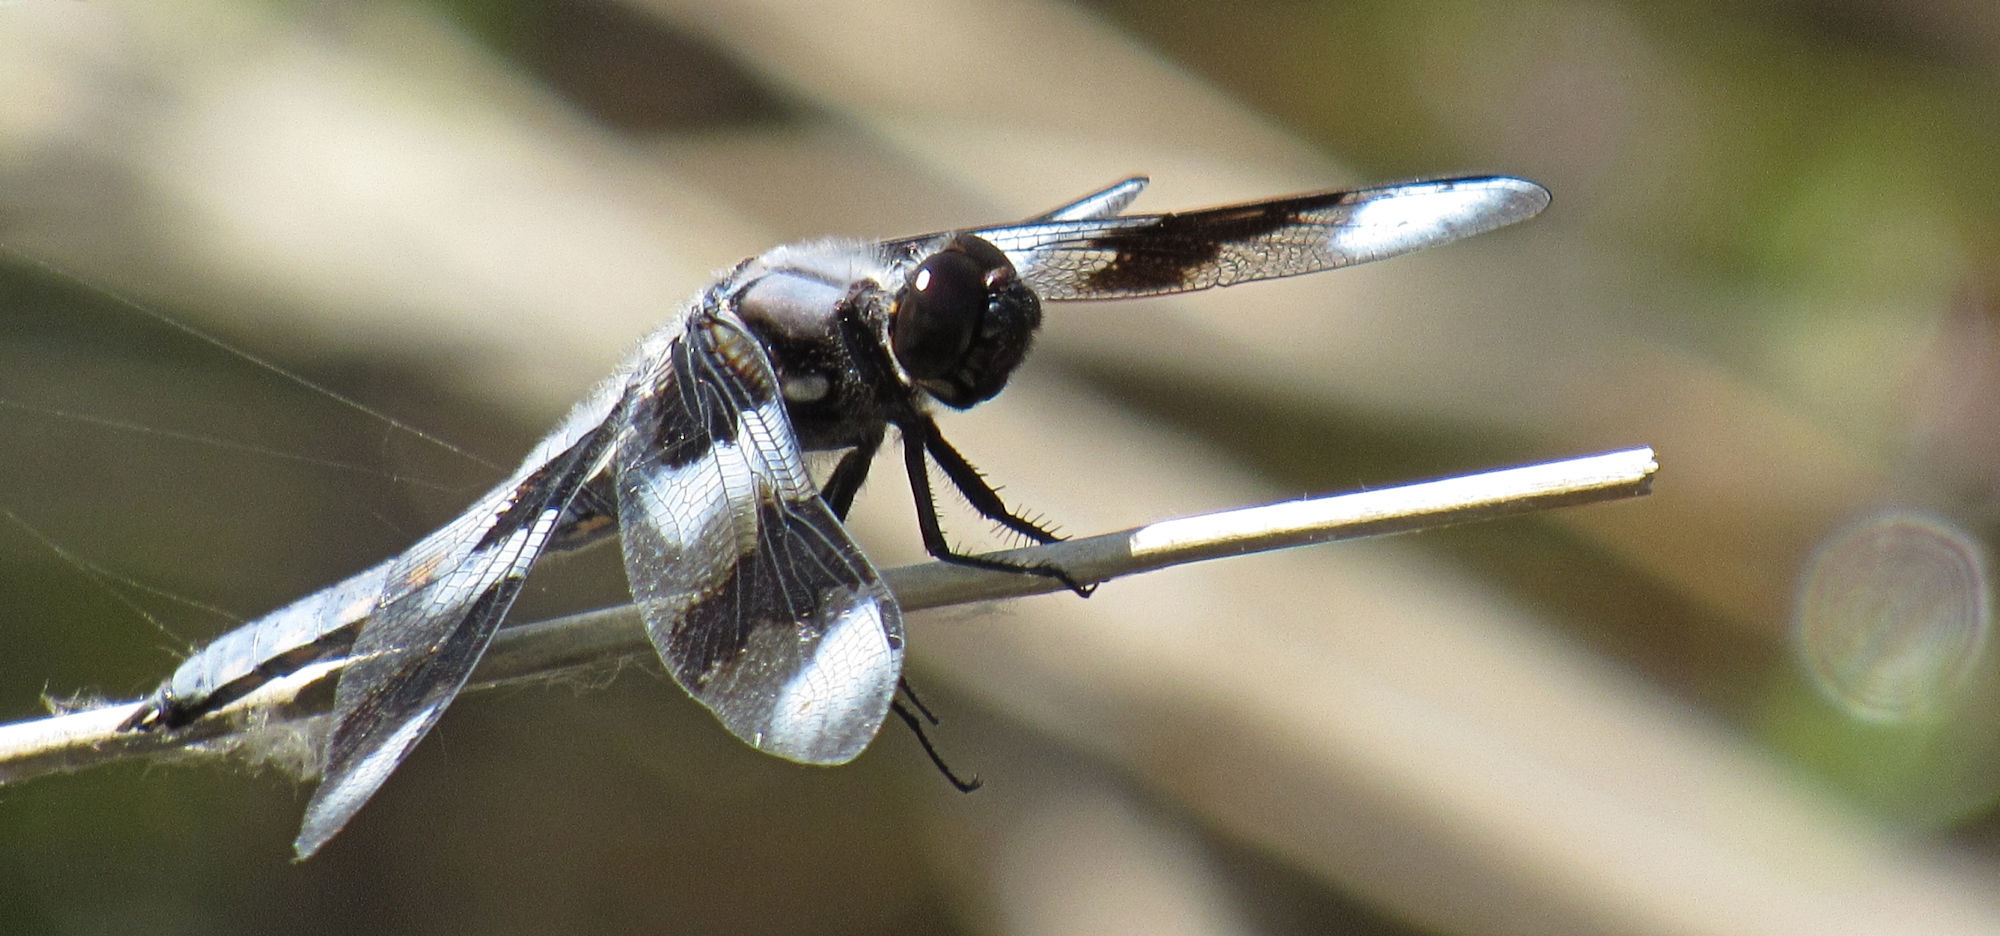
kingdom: Animalia
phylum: Arthropoda
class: Insecta
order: Odonata
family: Libellulidae
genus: Libellula
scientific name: Libellula forensis
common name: Eight-spotted skimmer
